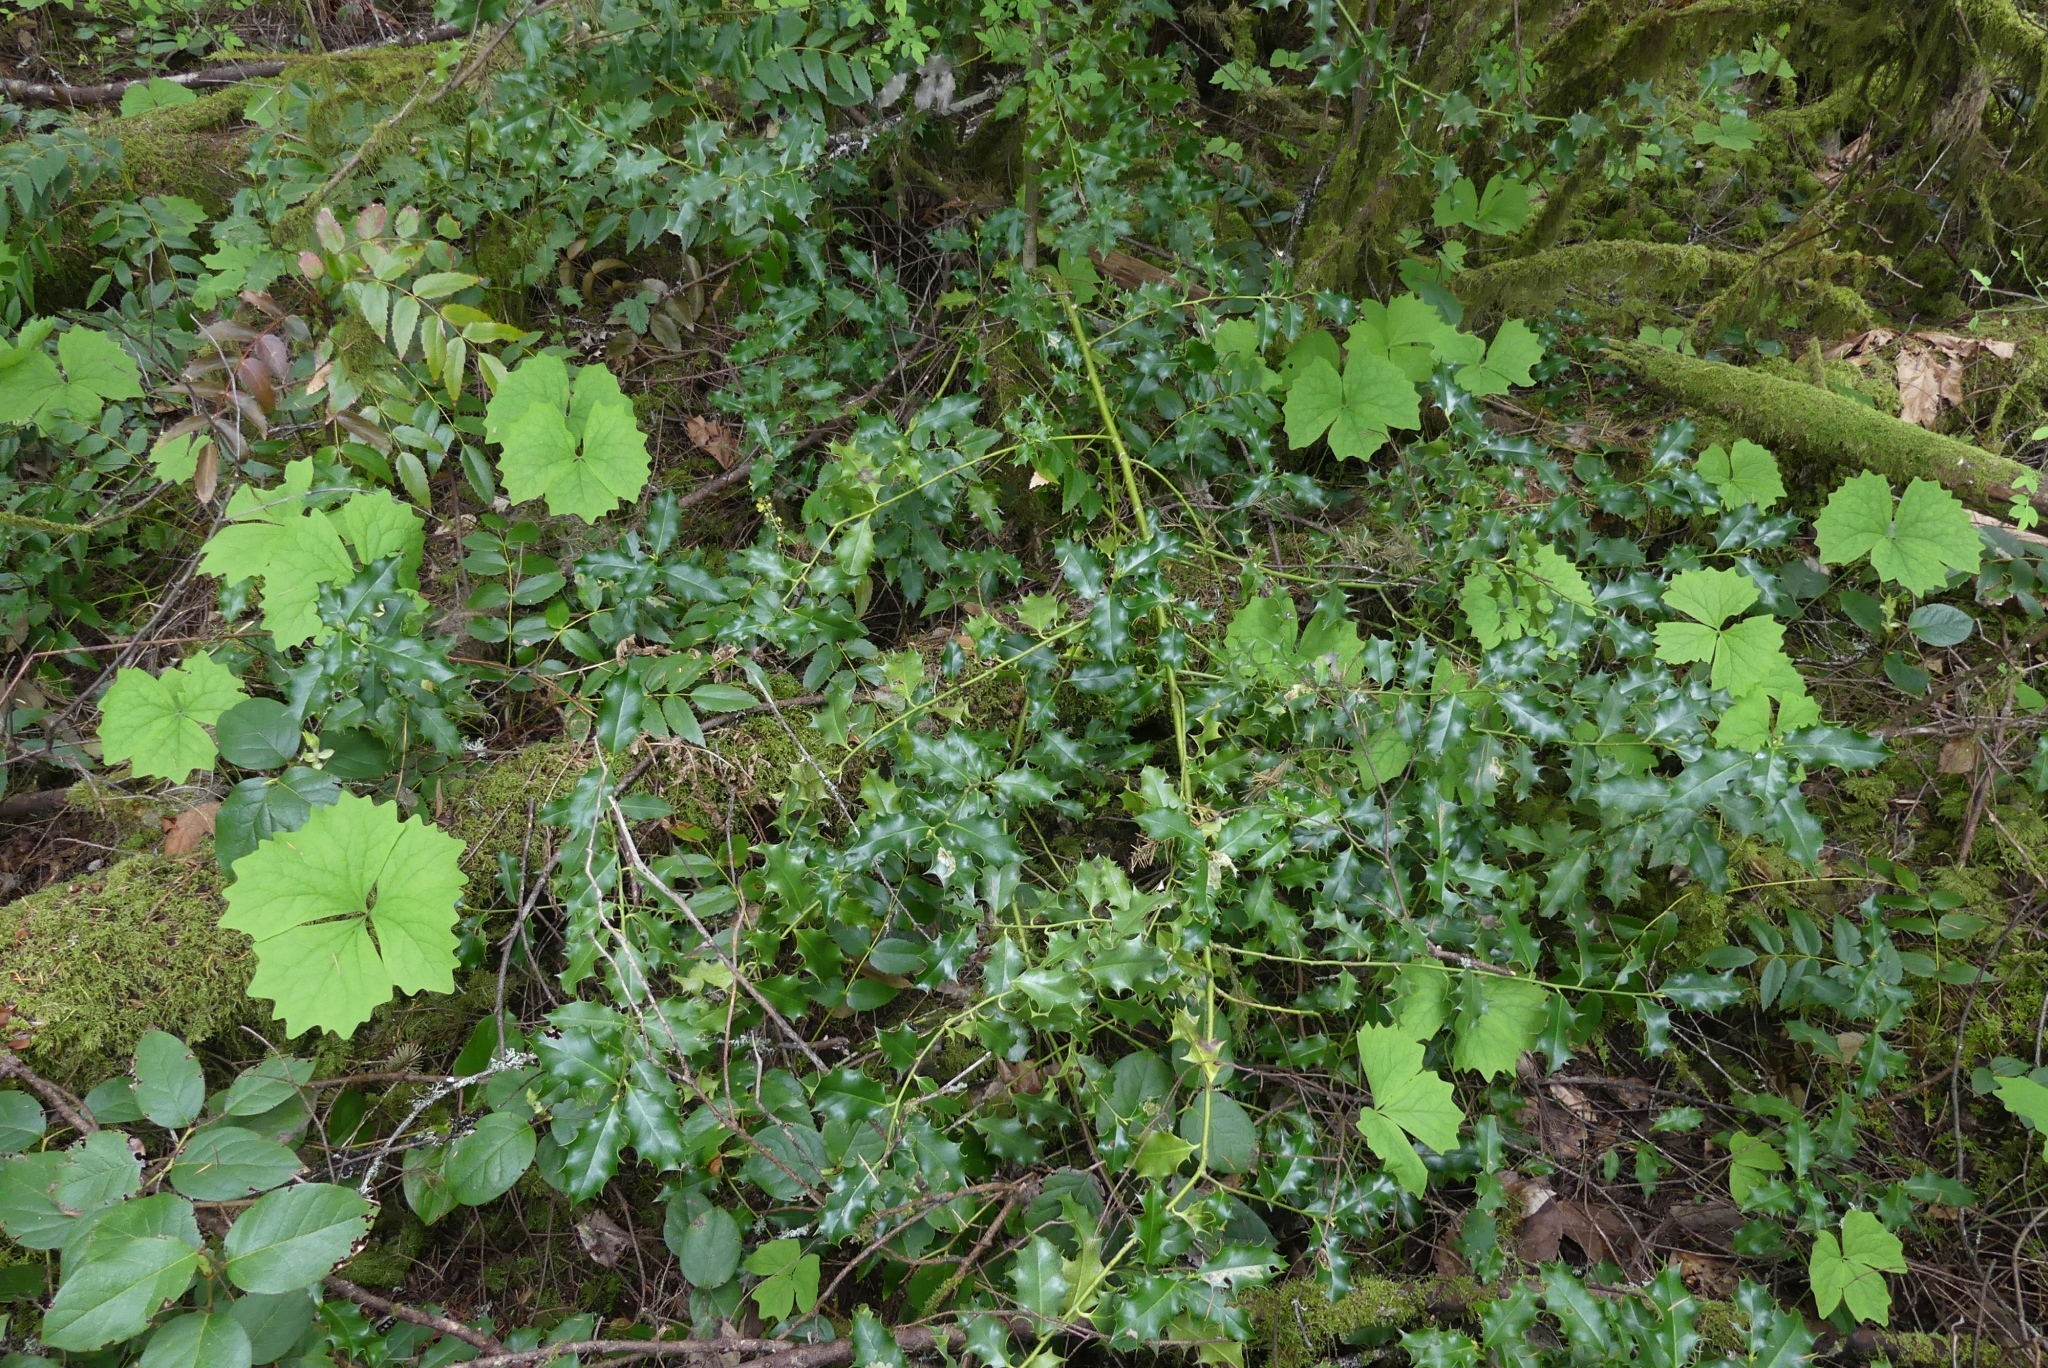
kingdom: Plantae
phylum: Tracheophyta
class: Magnoliopsida
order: Aquifoliales
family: Aquifoliaceae
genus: Ilex
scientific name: Ilex aquifolium
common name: English holly
